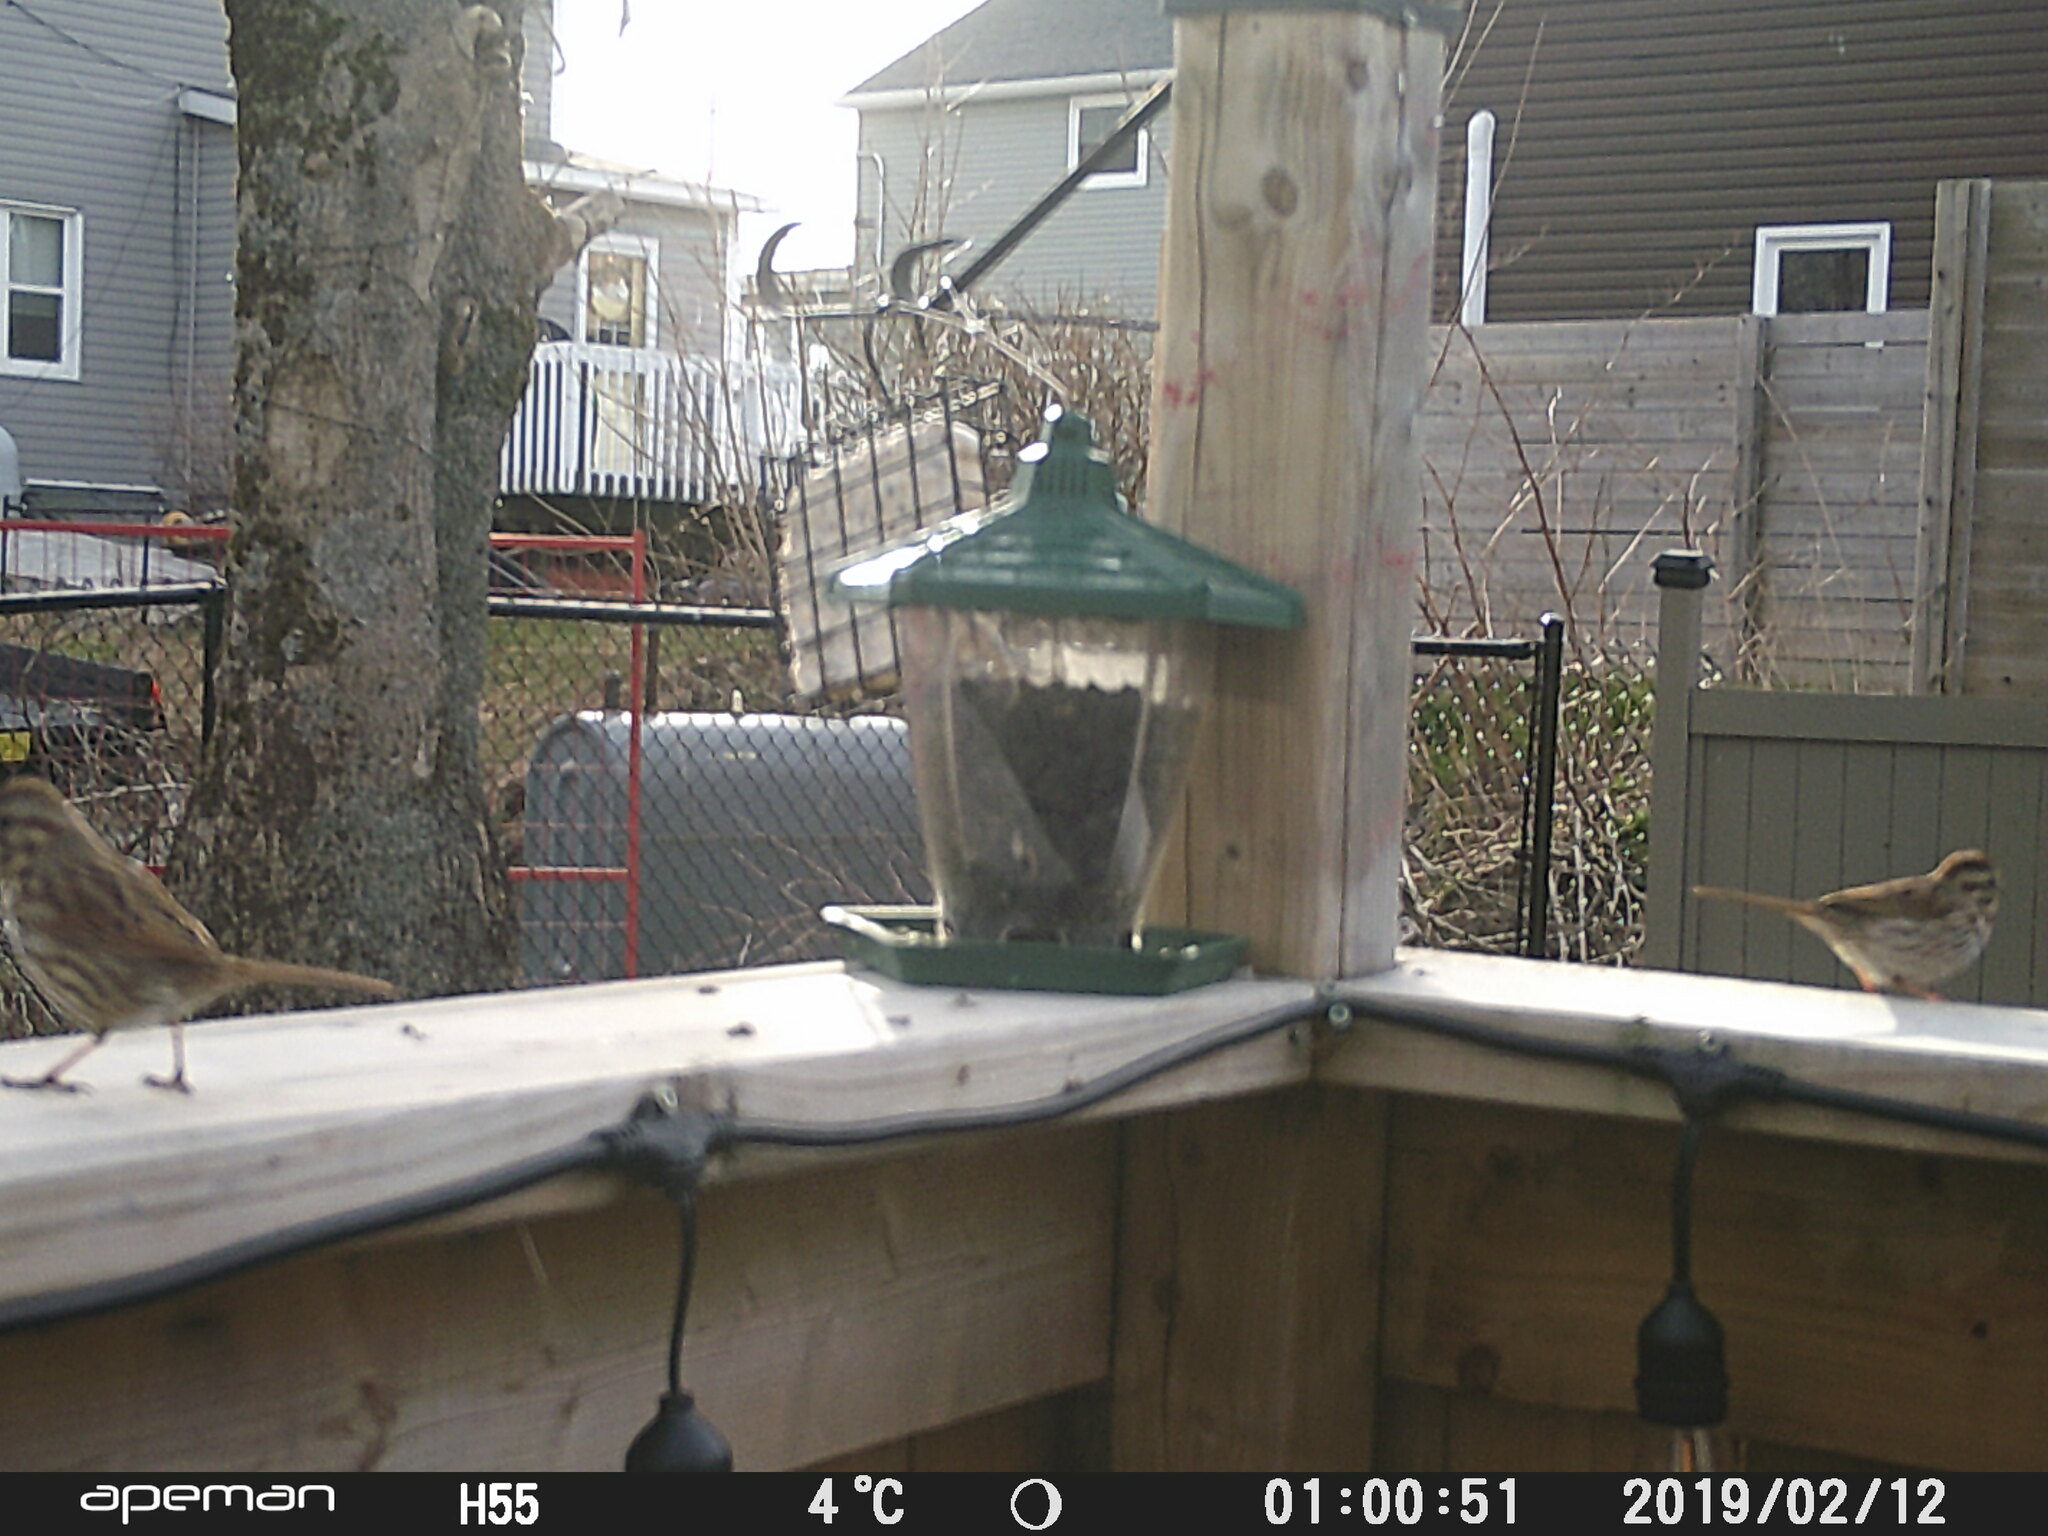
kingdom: Animalia
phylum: Chordata
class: Aves
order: Passeriformes
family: Passerellidae
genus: Melospiza
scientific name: Melospiza melodia
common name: Song sparrow
